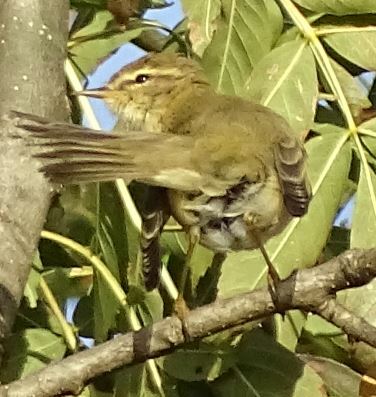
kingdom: Animalia
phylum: Chordata
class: Aves
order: Passeriformes
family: Phylloscopidae
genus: Phylloscopus
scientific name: Phylloscopus trochilus
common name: Willow warbler
